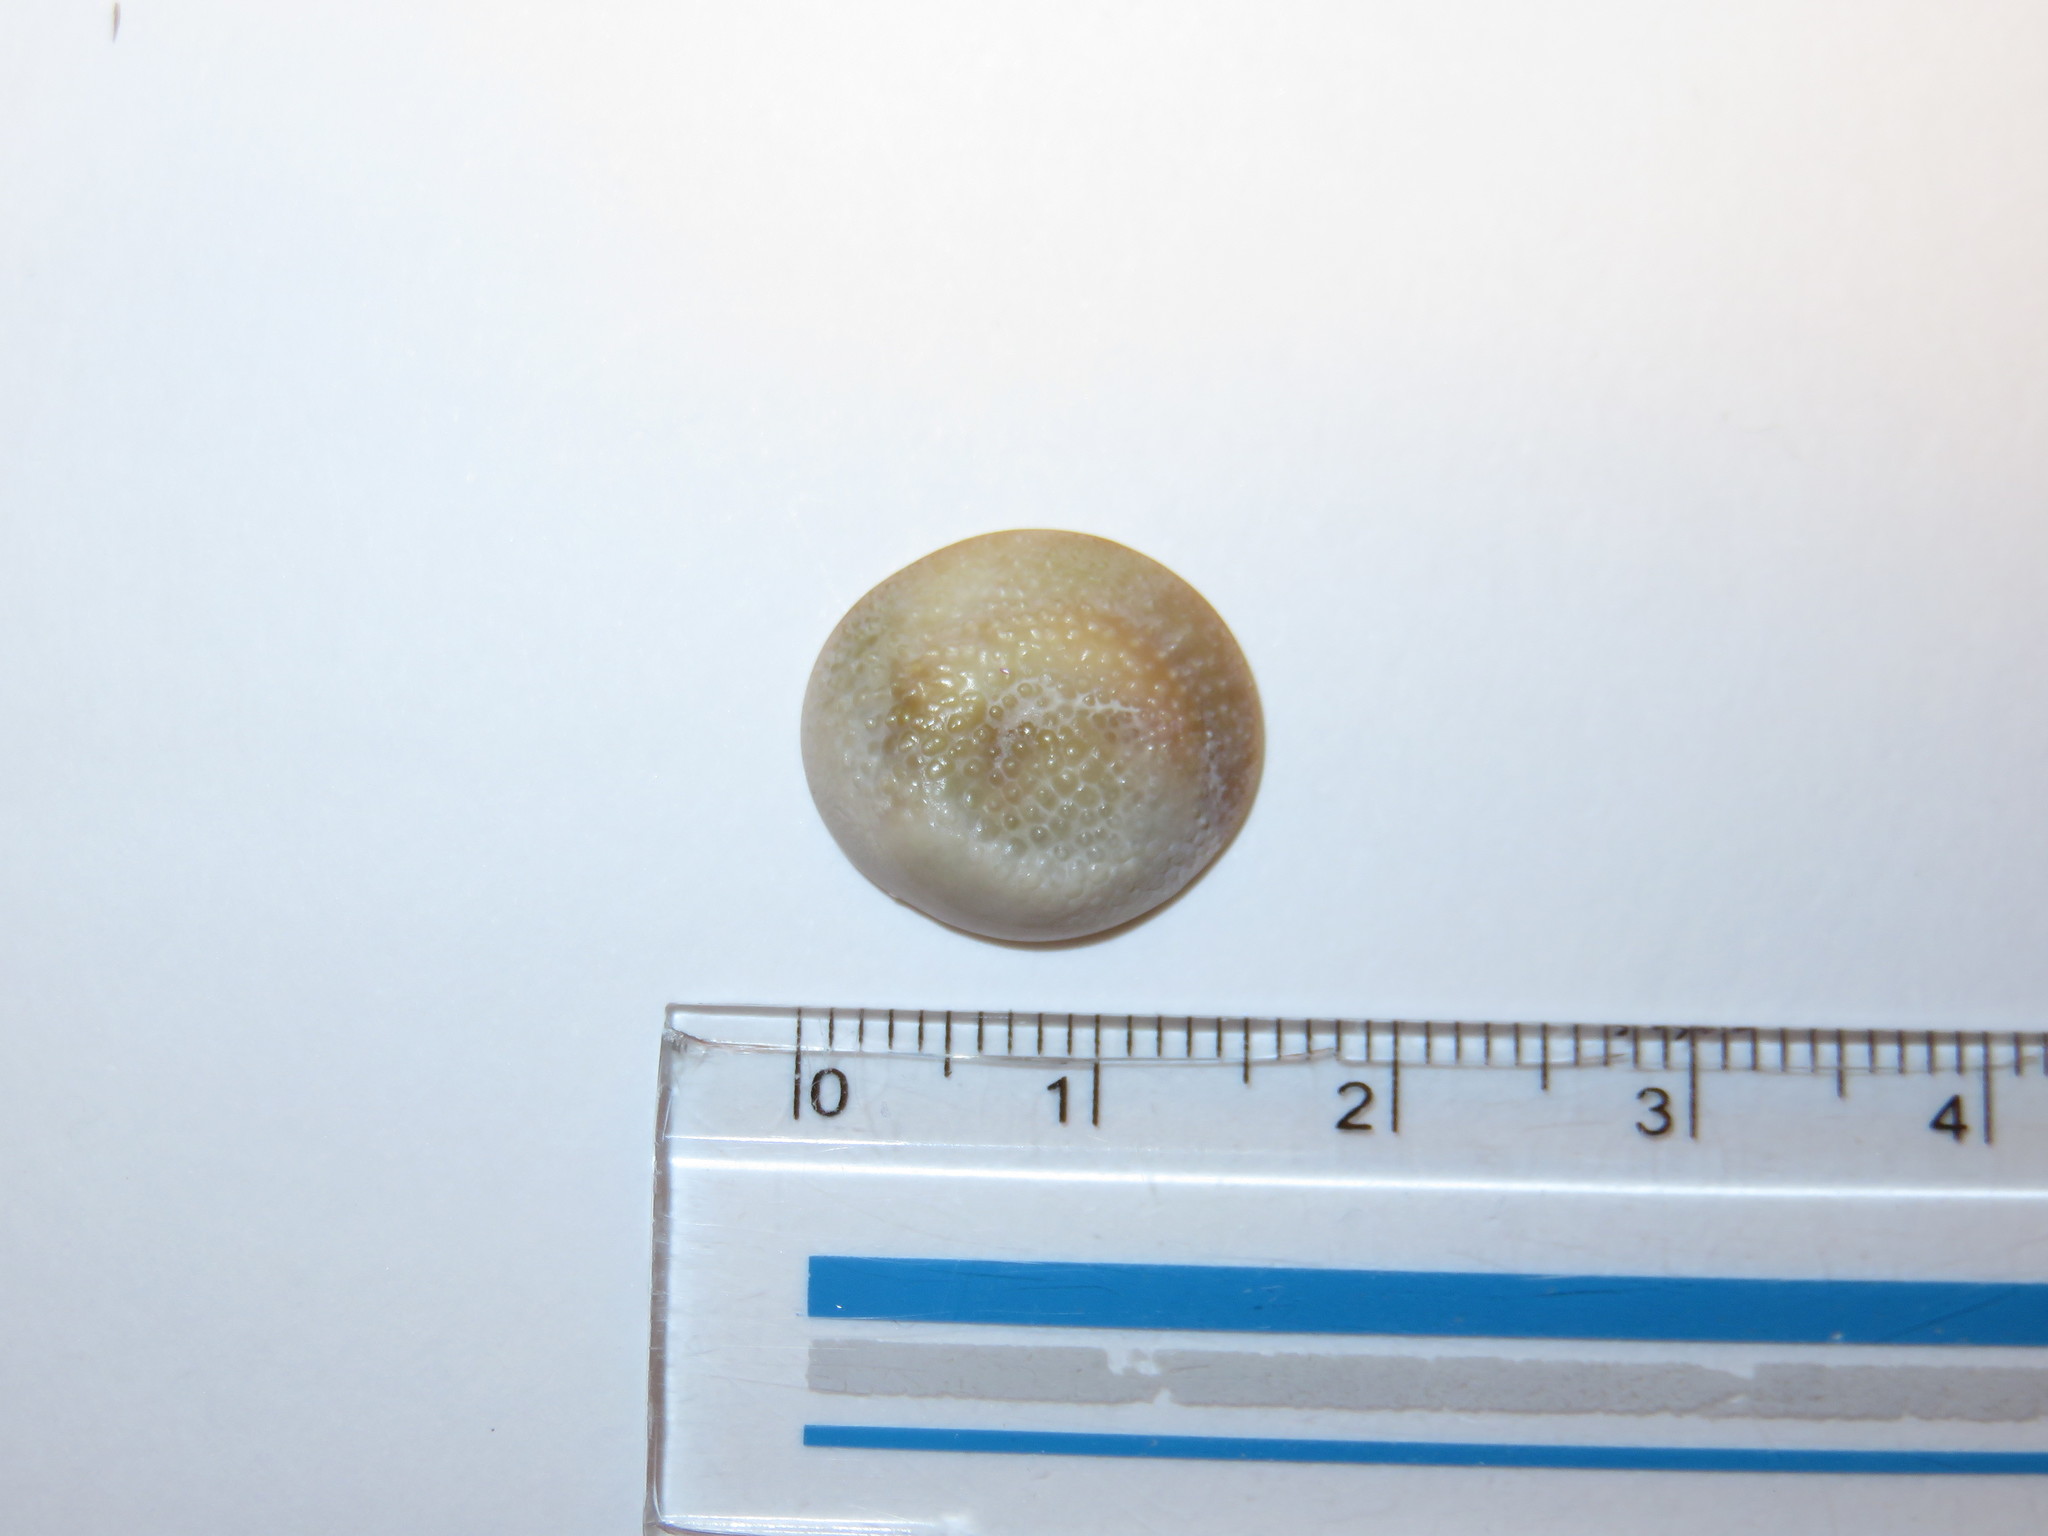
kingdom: Animalia
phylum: Mollusca
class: Gastropoda
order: Trochida
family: Turbinidae
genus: Turbo
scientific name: Turbo sazae
